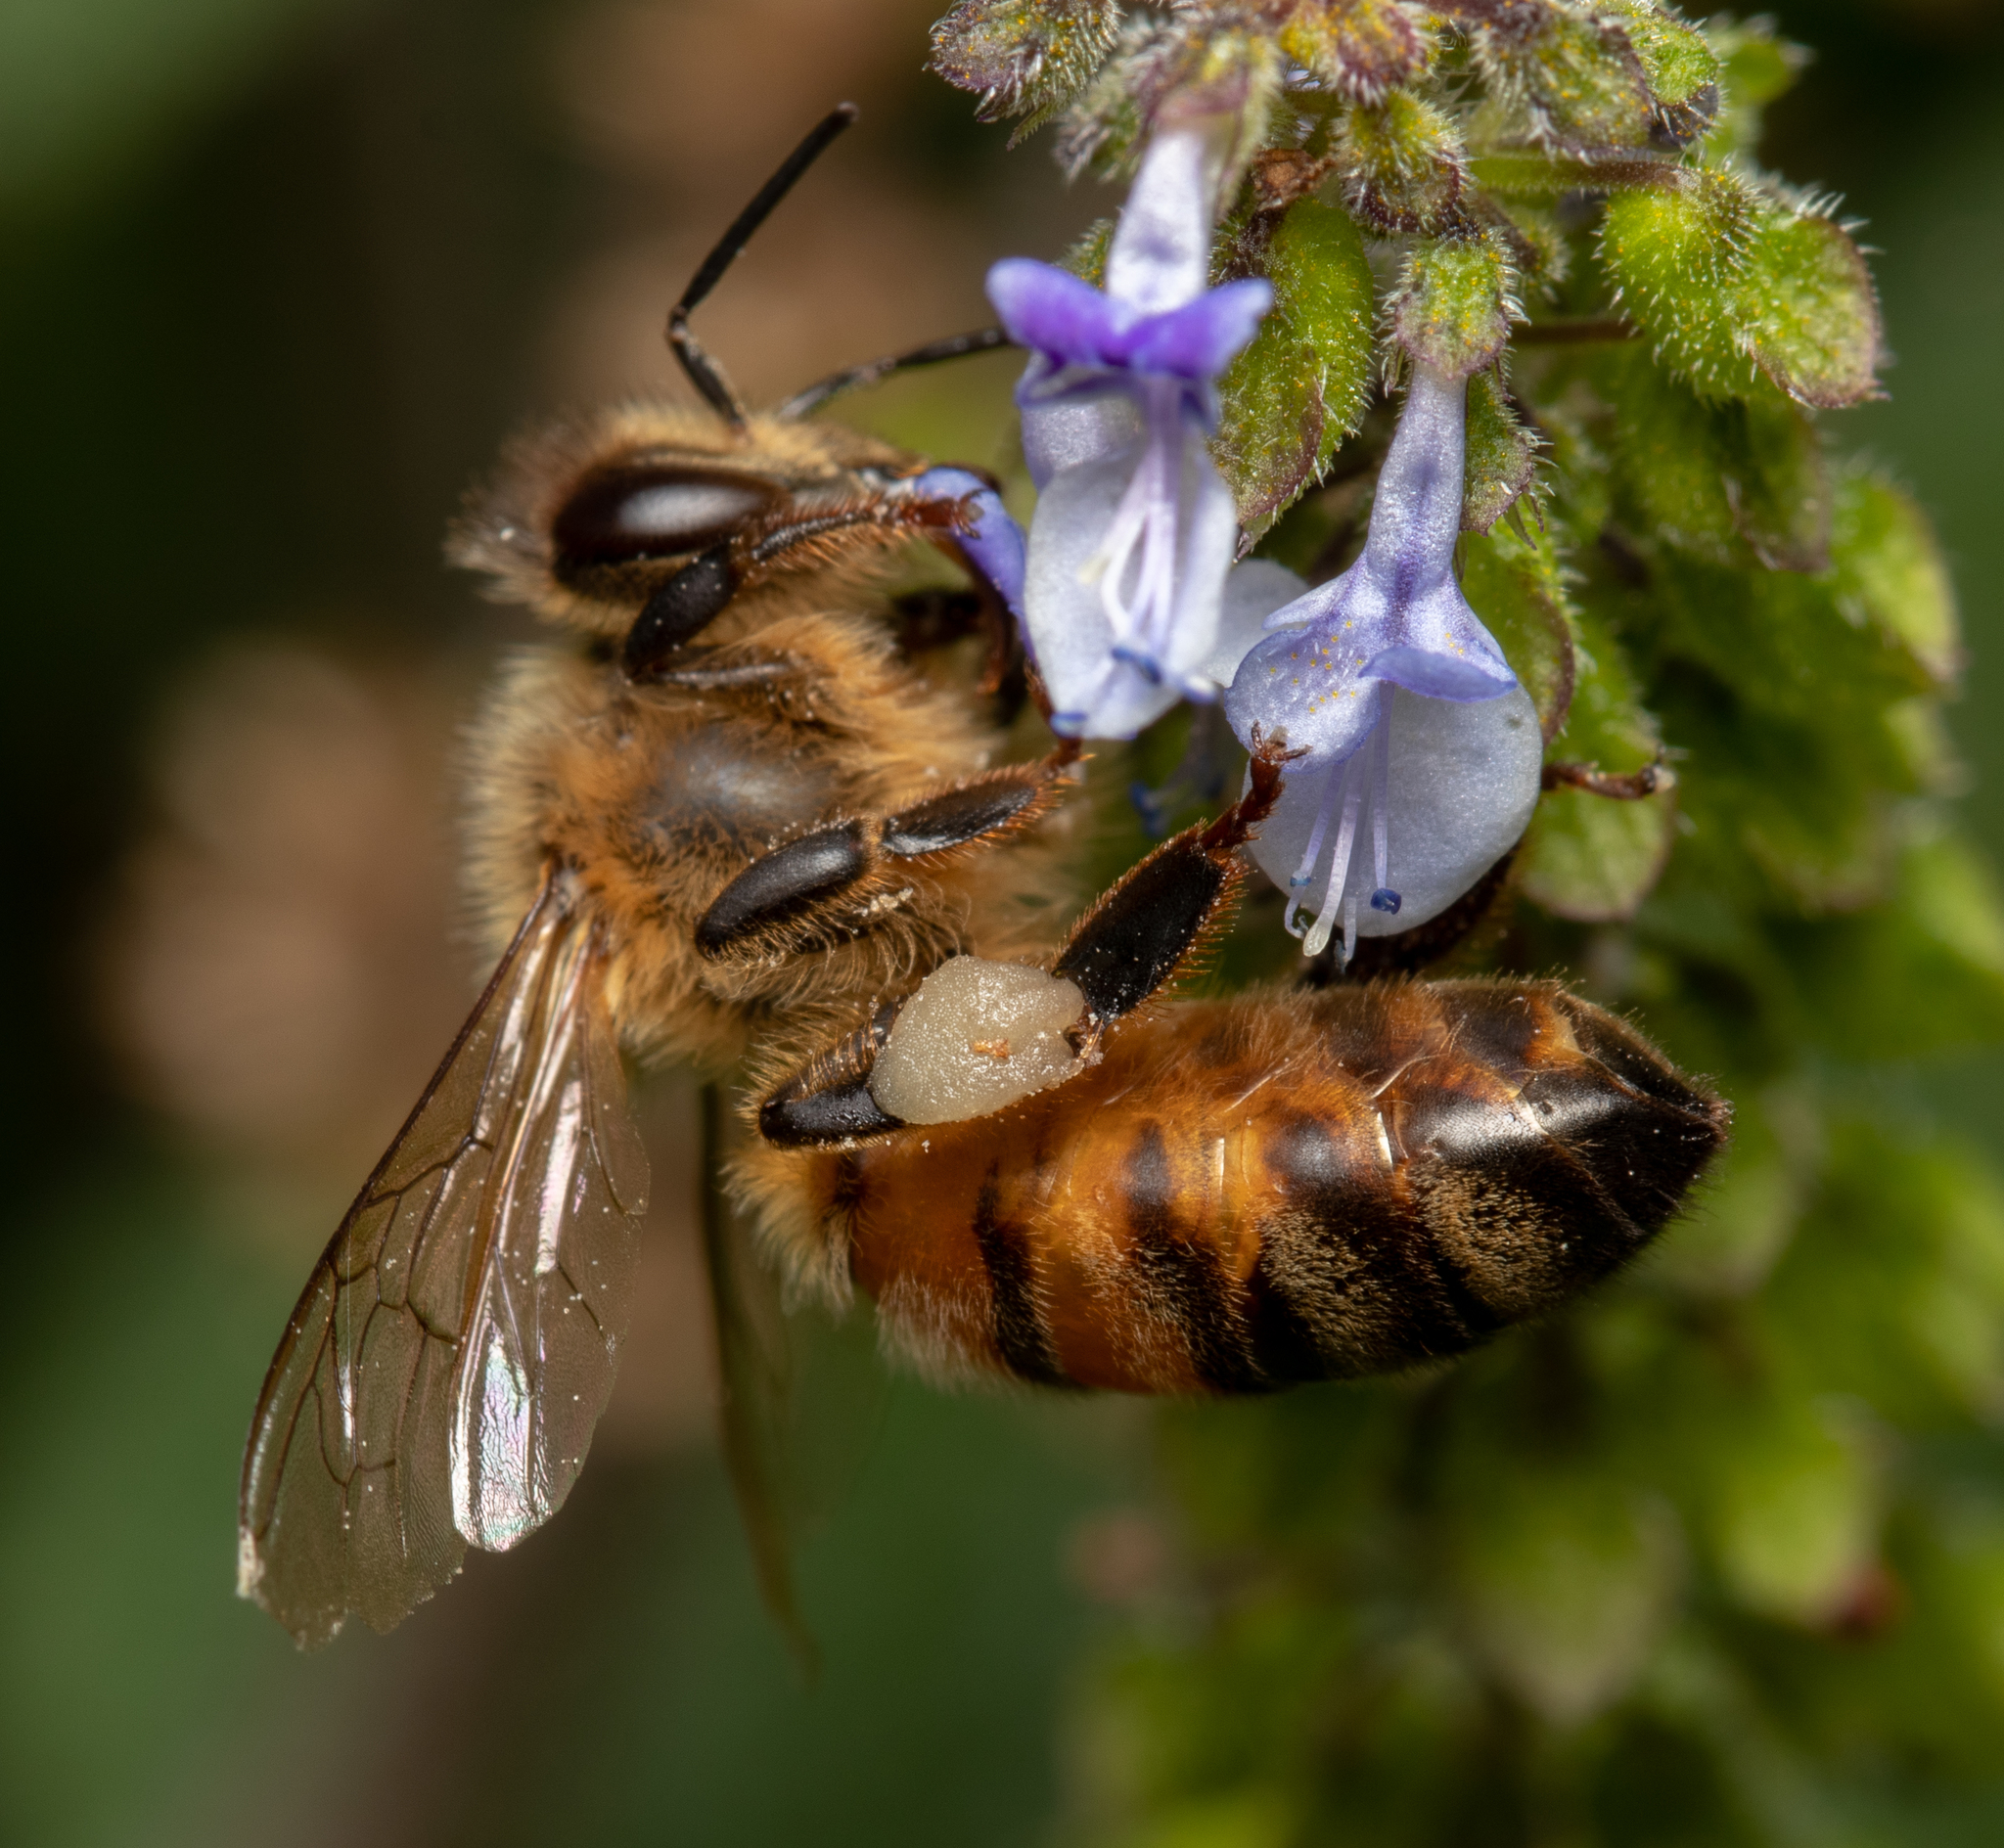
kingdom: Animalia
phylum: Arthropoda
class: Insecta
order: Hymenoptera
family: Apidae
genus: Apis
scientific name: Apis mellifera
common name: Honey bee
